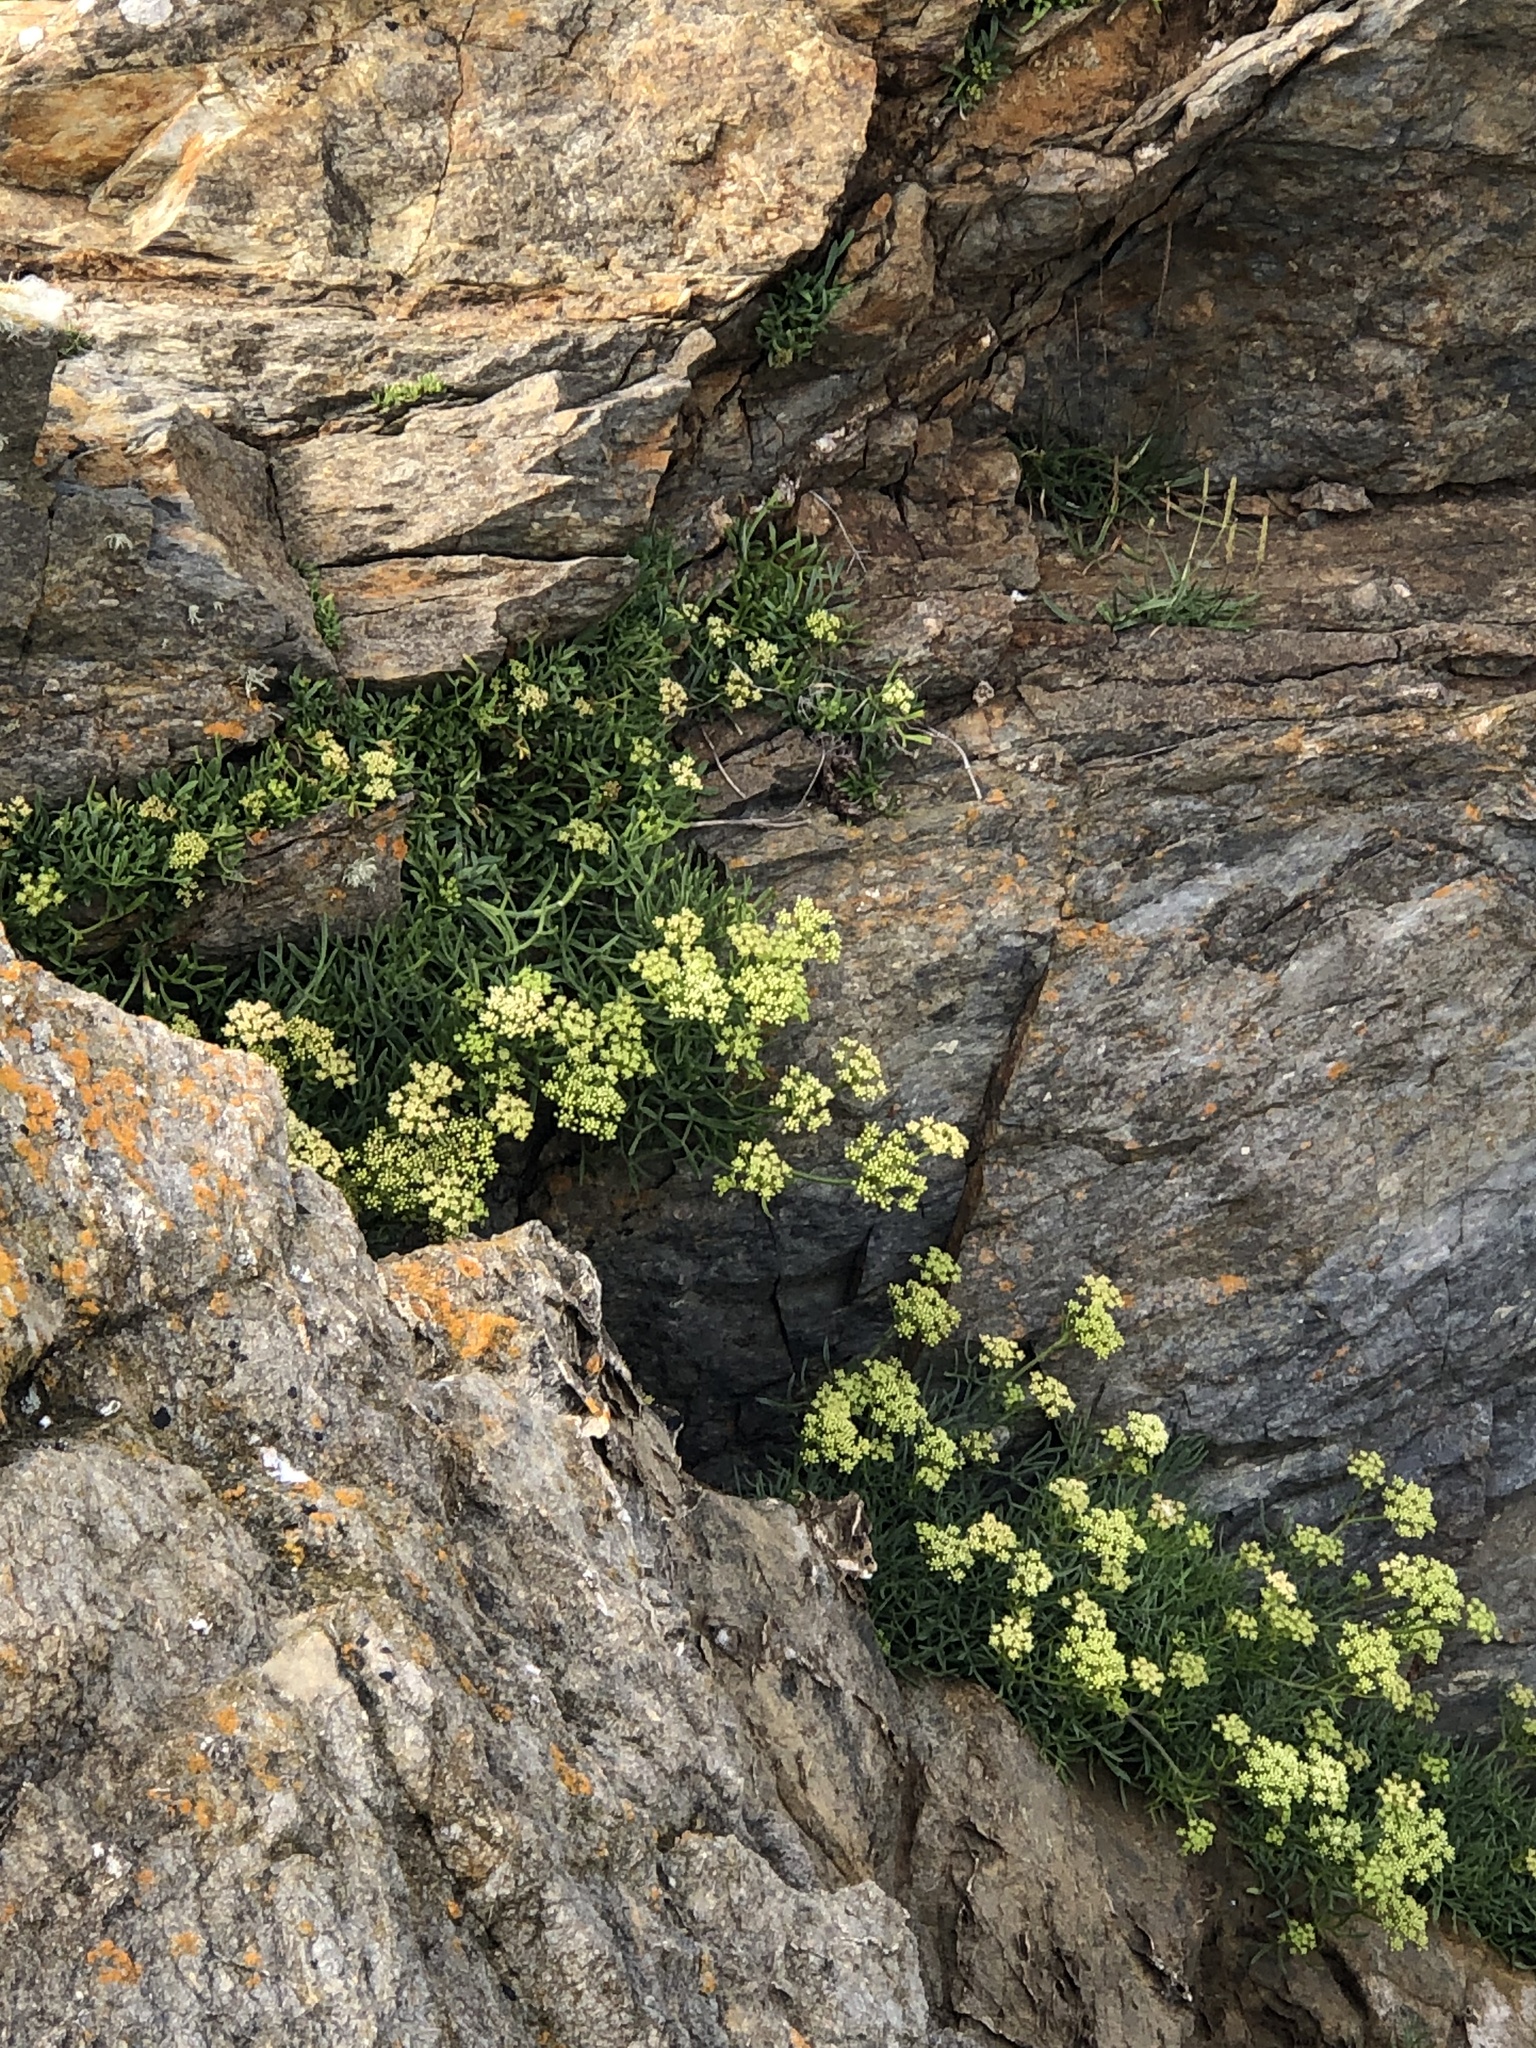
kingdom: Plantae
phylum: Tracheophyta
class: Magnoliopsida
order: Apiales
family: Apiaceae
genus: Crithmum
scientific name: Crithmum maritimum
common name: Rock samphire
